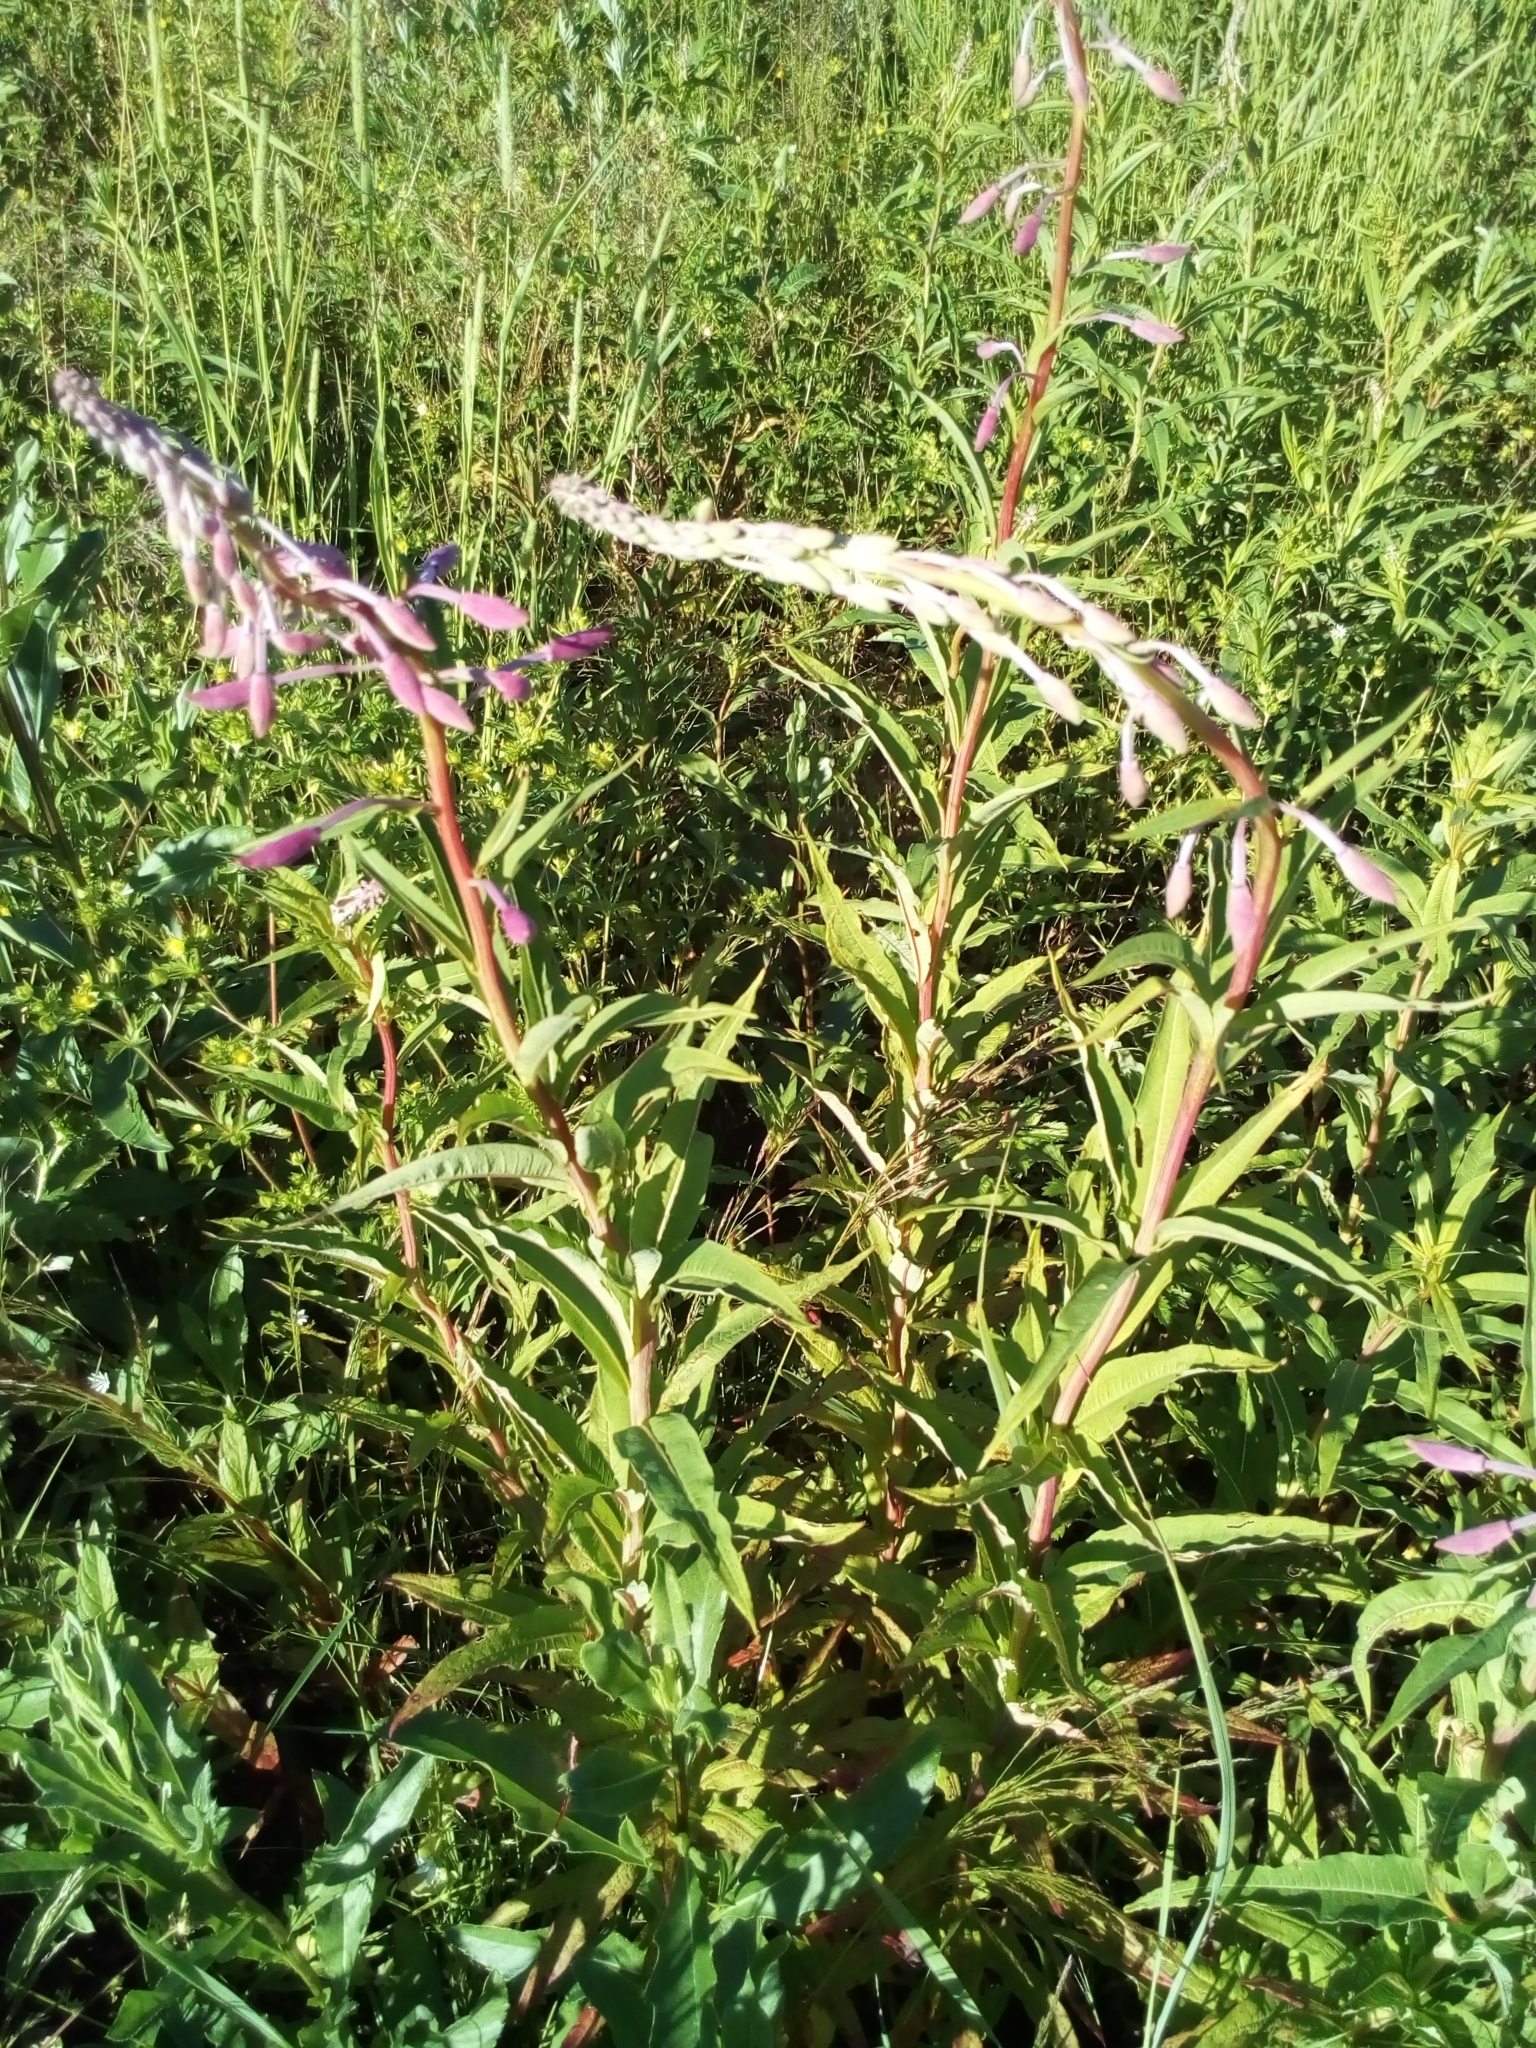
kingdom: Plantae
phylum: Tracheophyta
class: Magnoliopsida
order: Myrtales
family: Onagraceae
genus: Chamaenerion
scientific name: Chamaenerion angustifolium
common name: Fireweed
